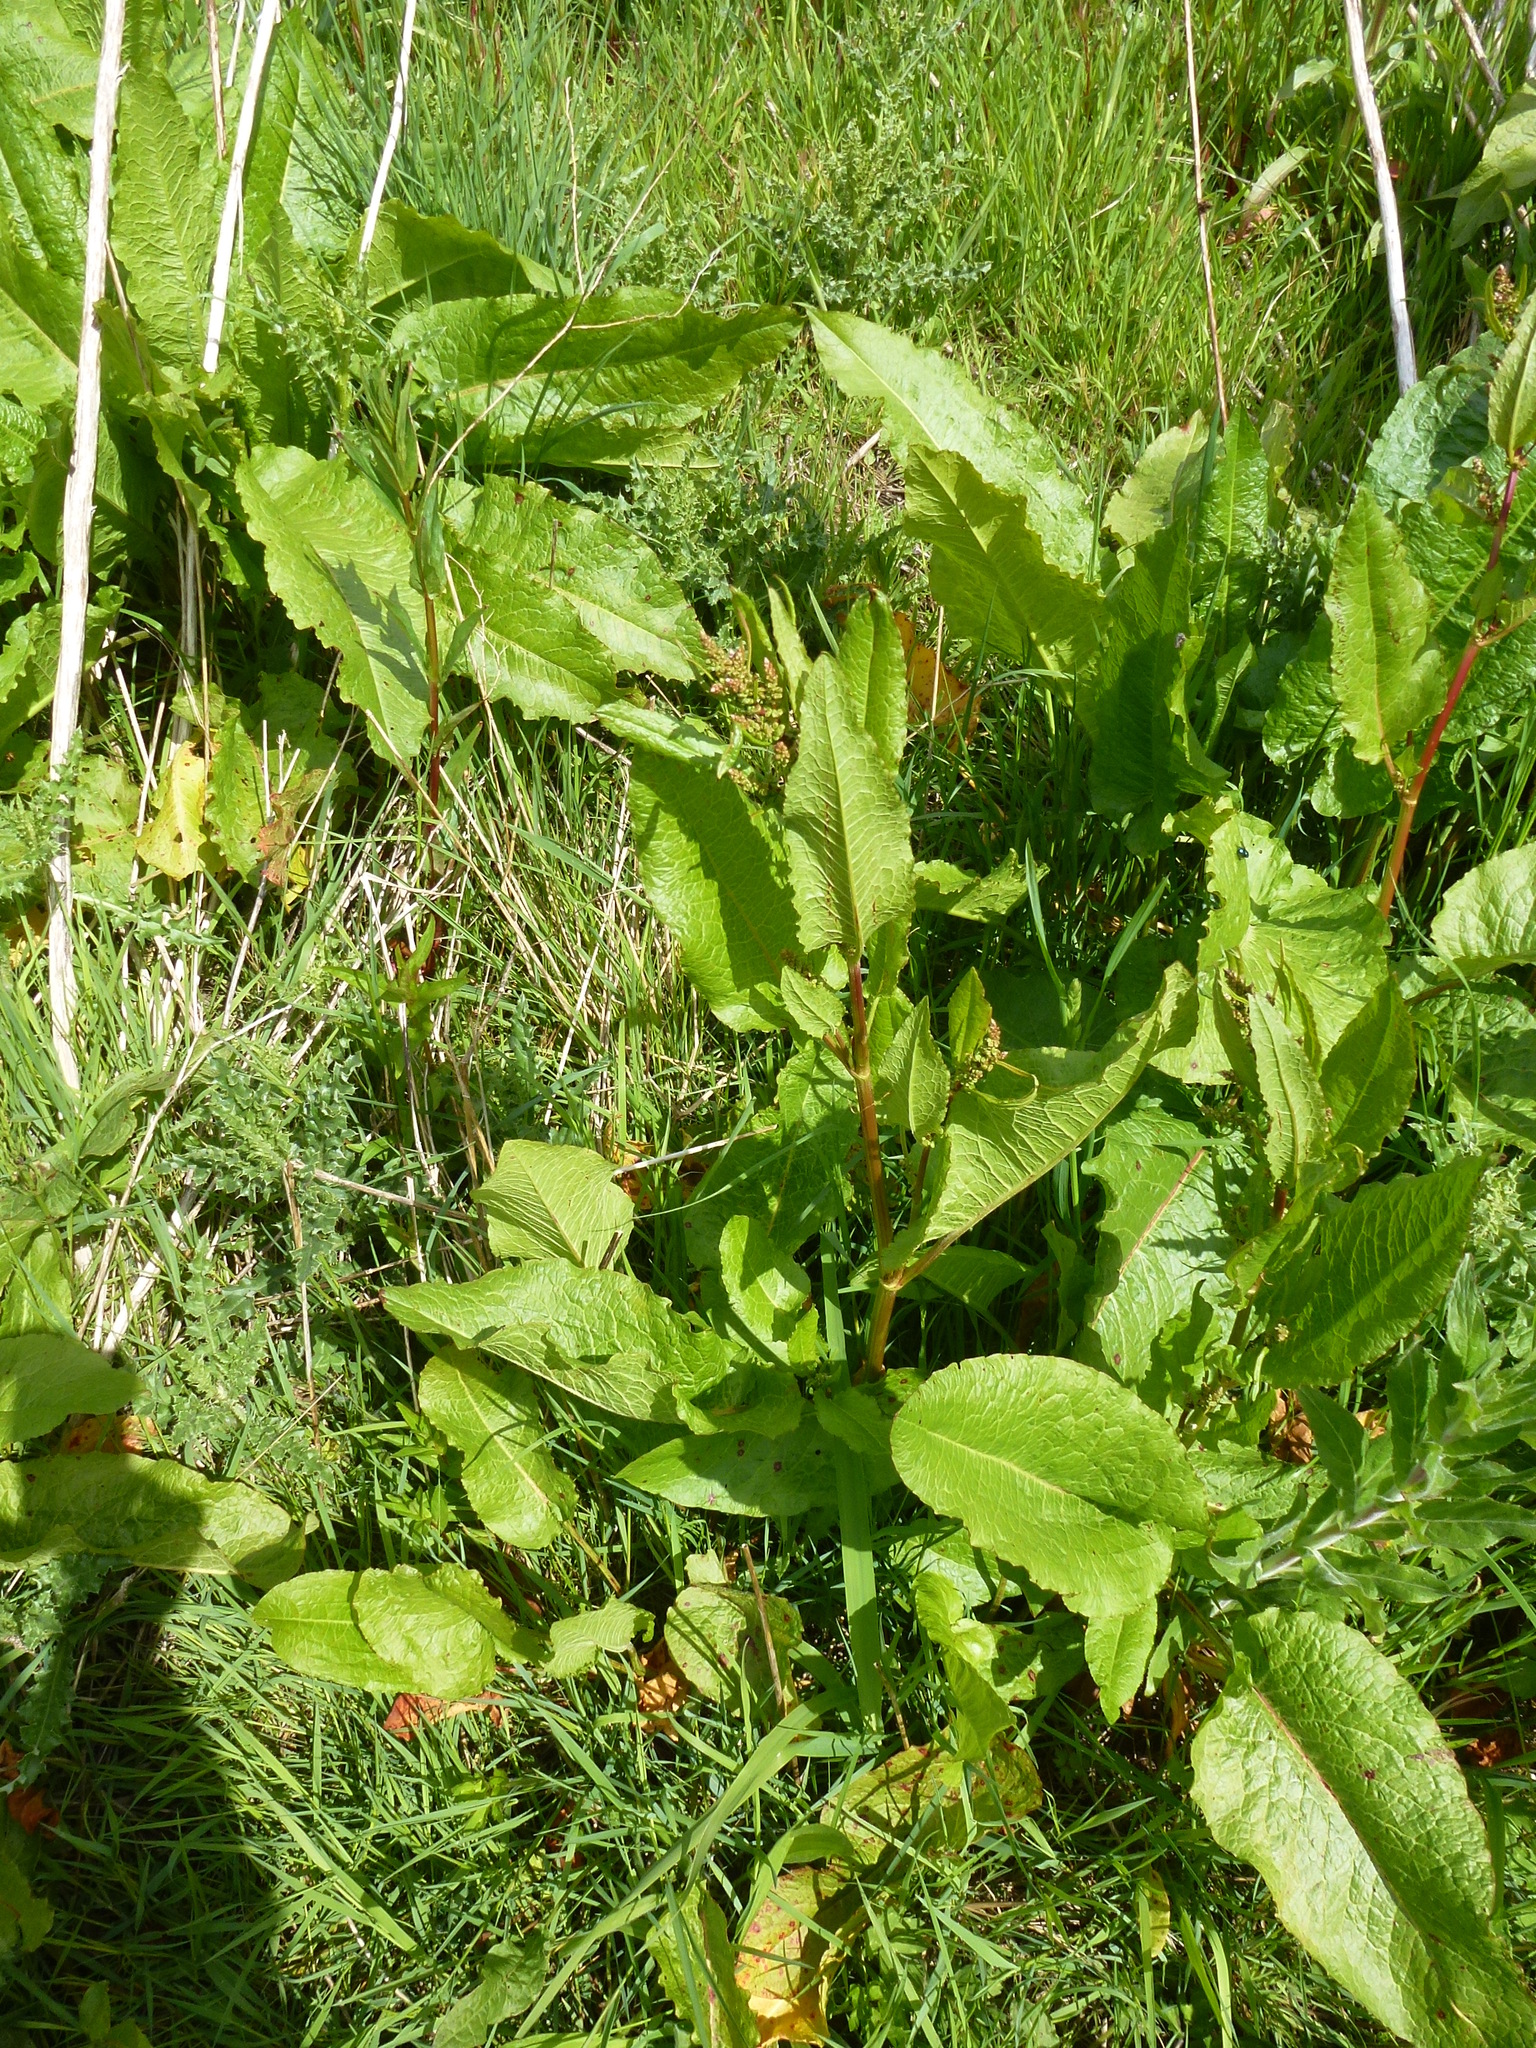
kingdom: Plantae
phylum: Tracheophyta
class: Magnoliopsida
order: Caryophyllales
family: Polygonaceae
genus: Rumex
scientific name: Rumex obtusifolius
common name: Bitter dock
